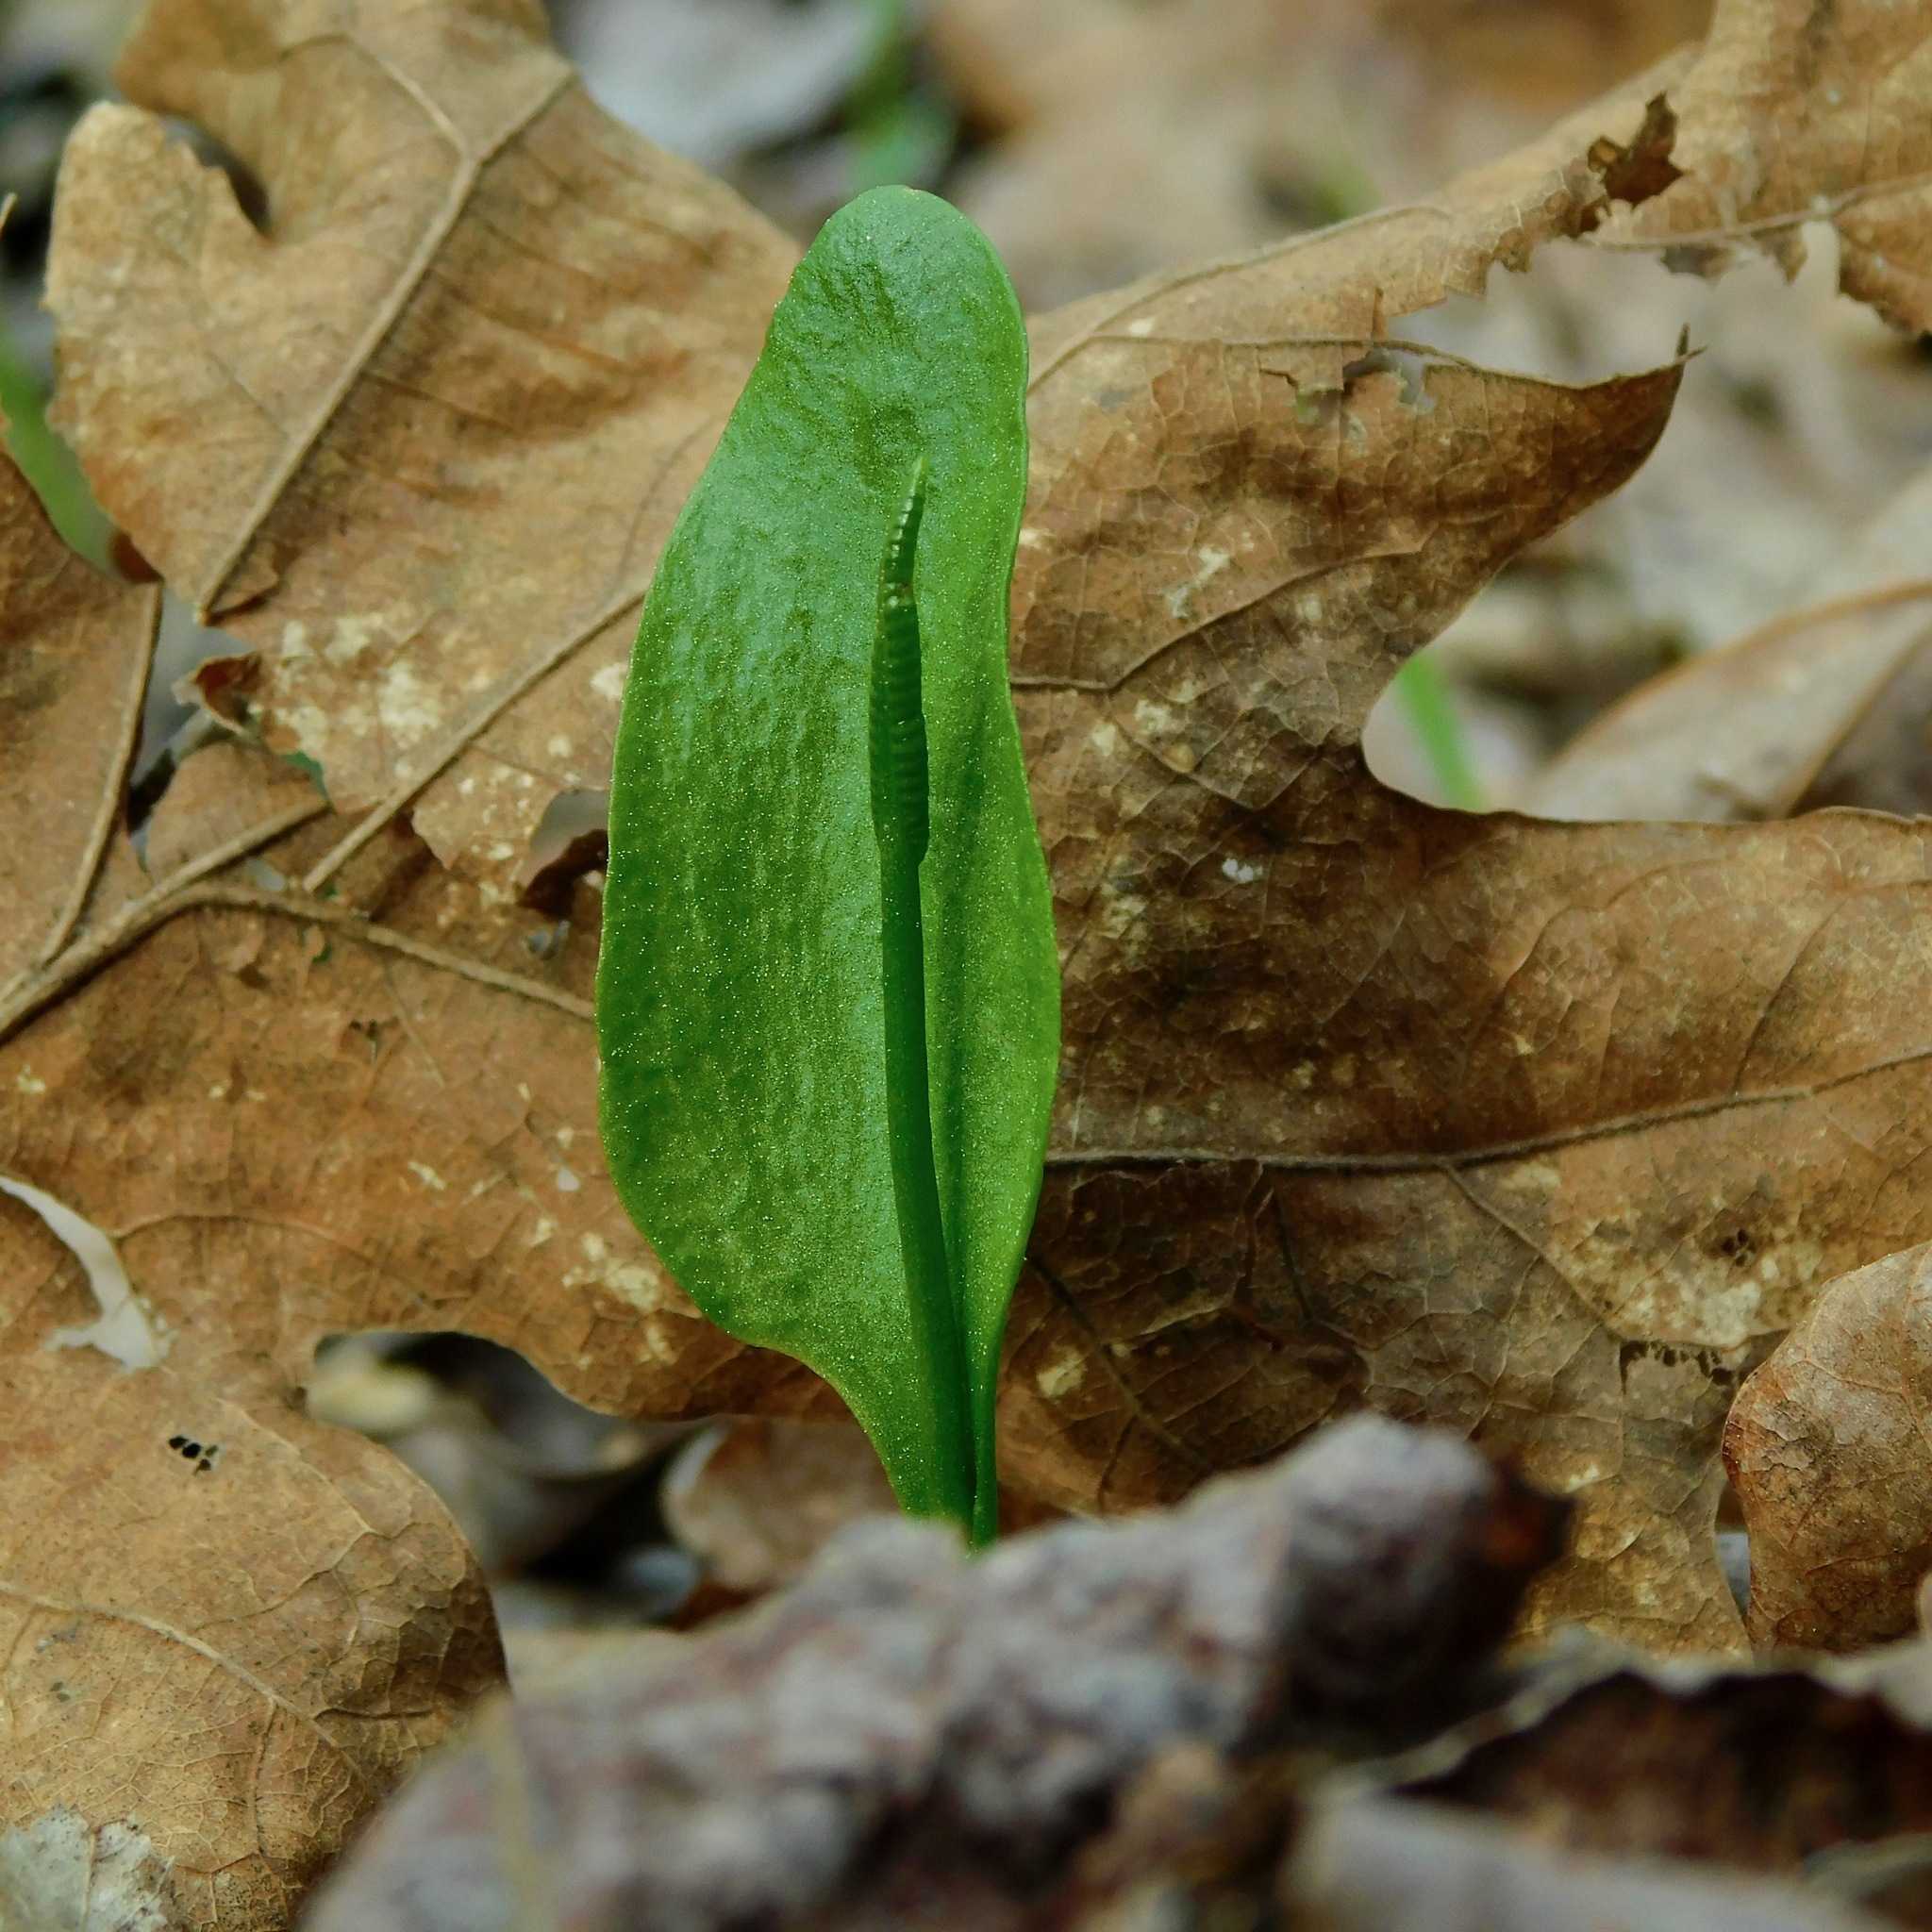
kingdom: Plantae
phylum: Tracheophyta
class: Polypodiopsida
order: Ophioglossales
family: Ophioglossaceae
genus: Ophioglossum
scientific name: Ophioglossum
